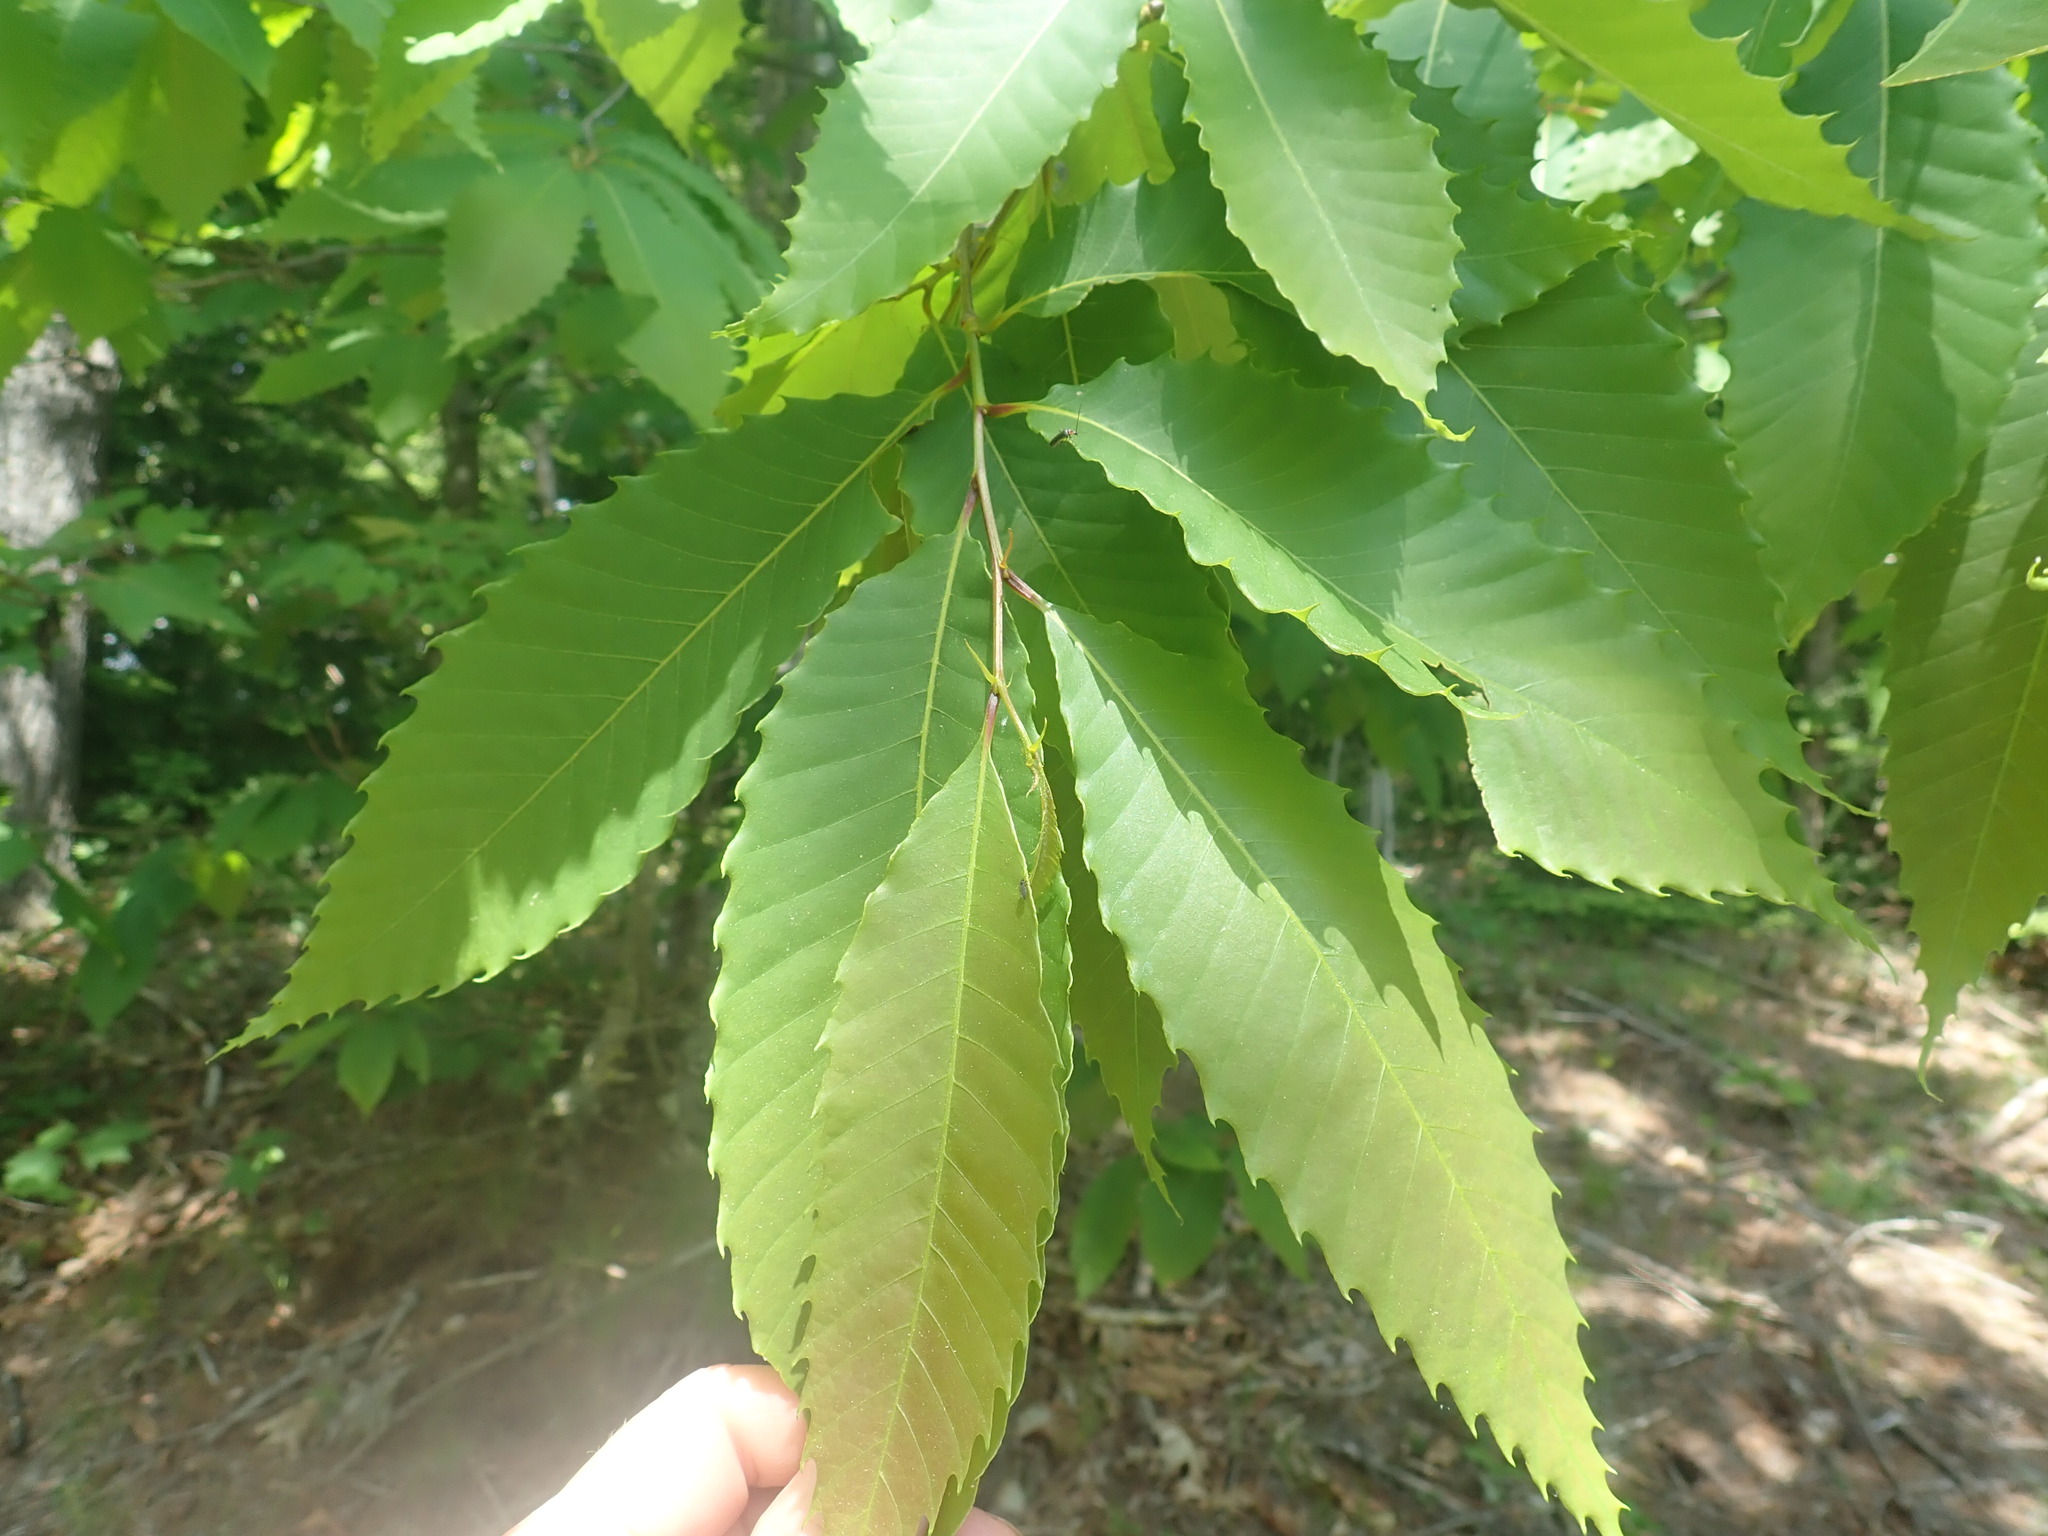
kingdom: Plantae
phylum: Tracheophyta
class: Magnoliopsida
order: Fagales
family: Fagaceae
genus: Castanea
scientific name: Castanea dentata
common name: American chestnut
